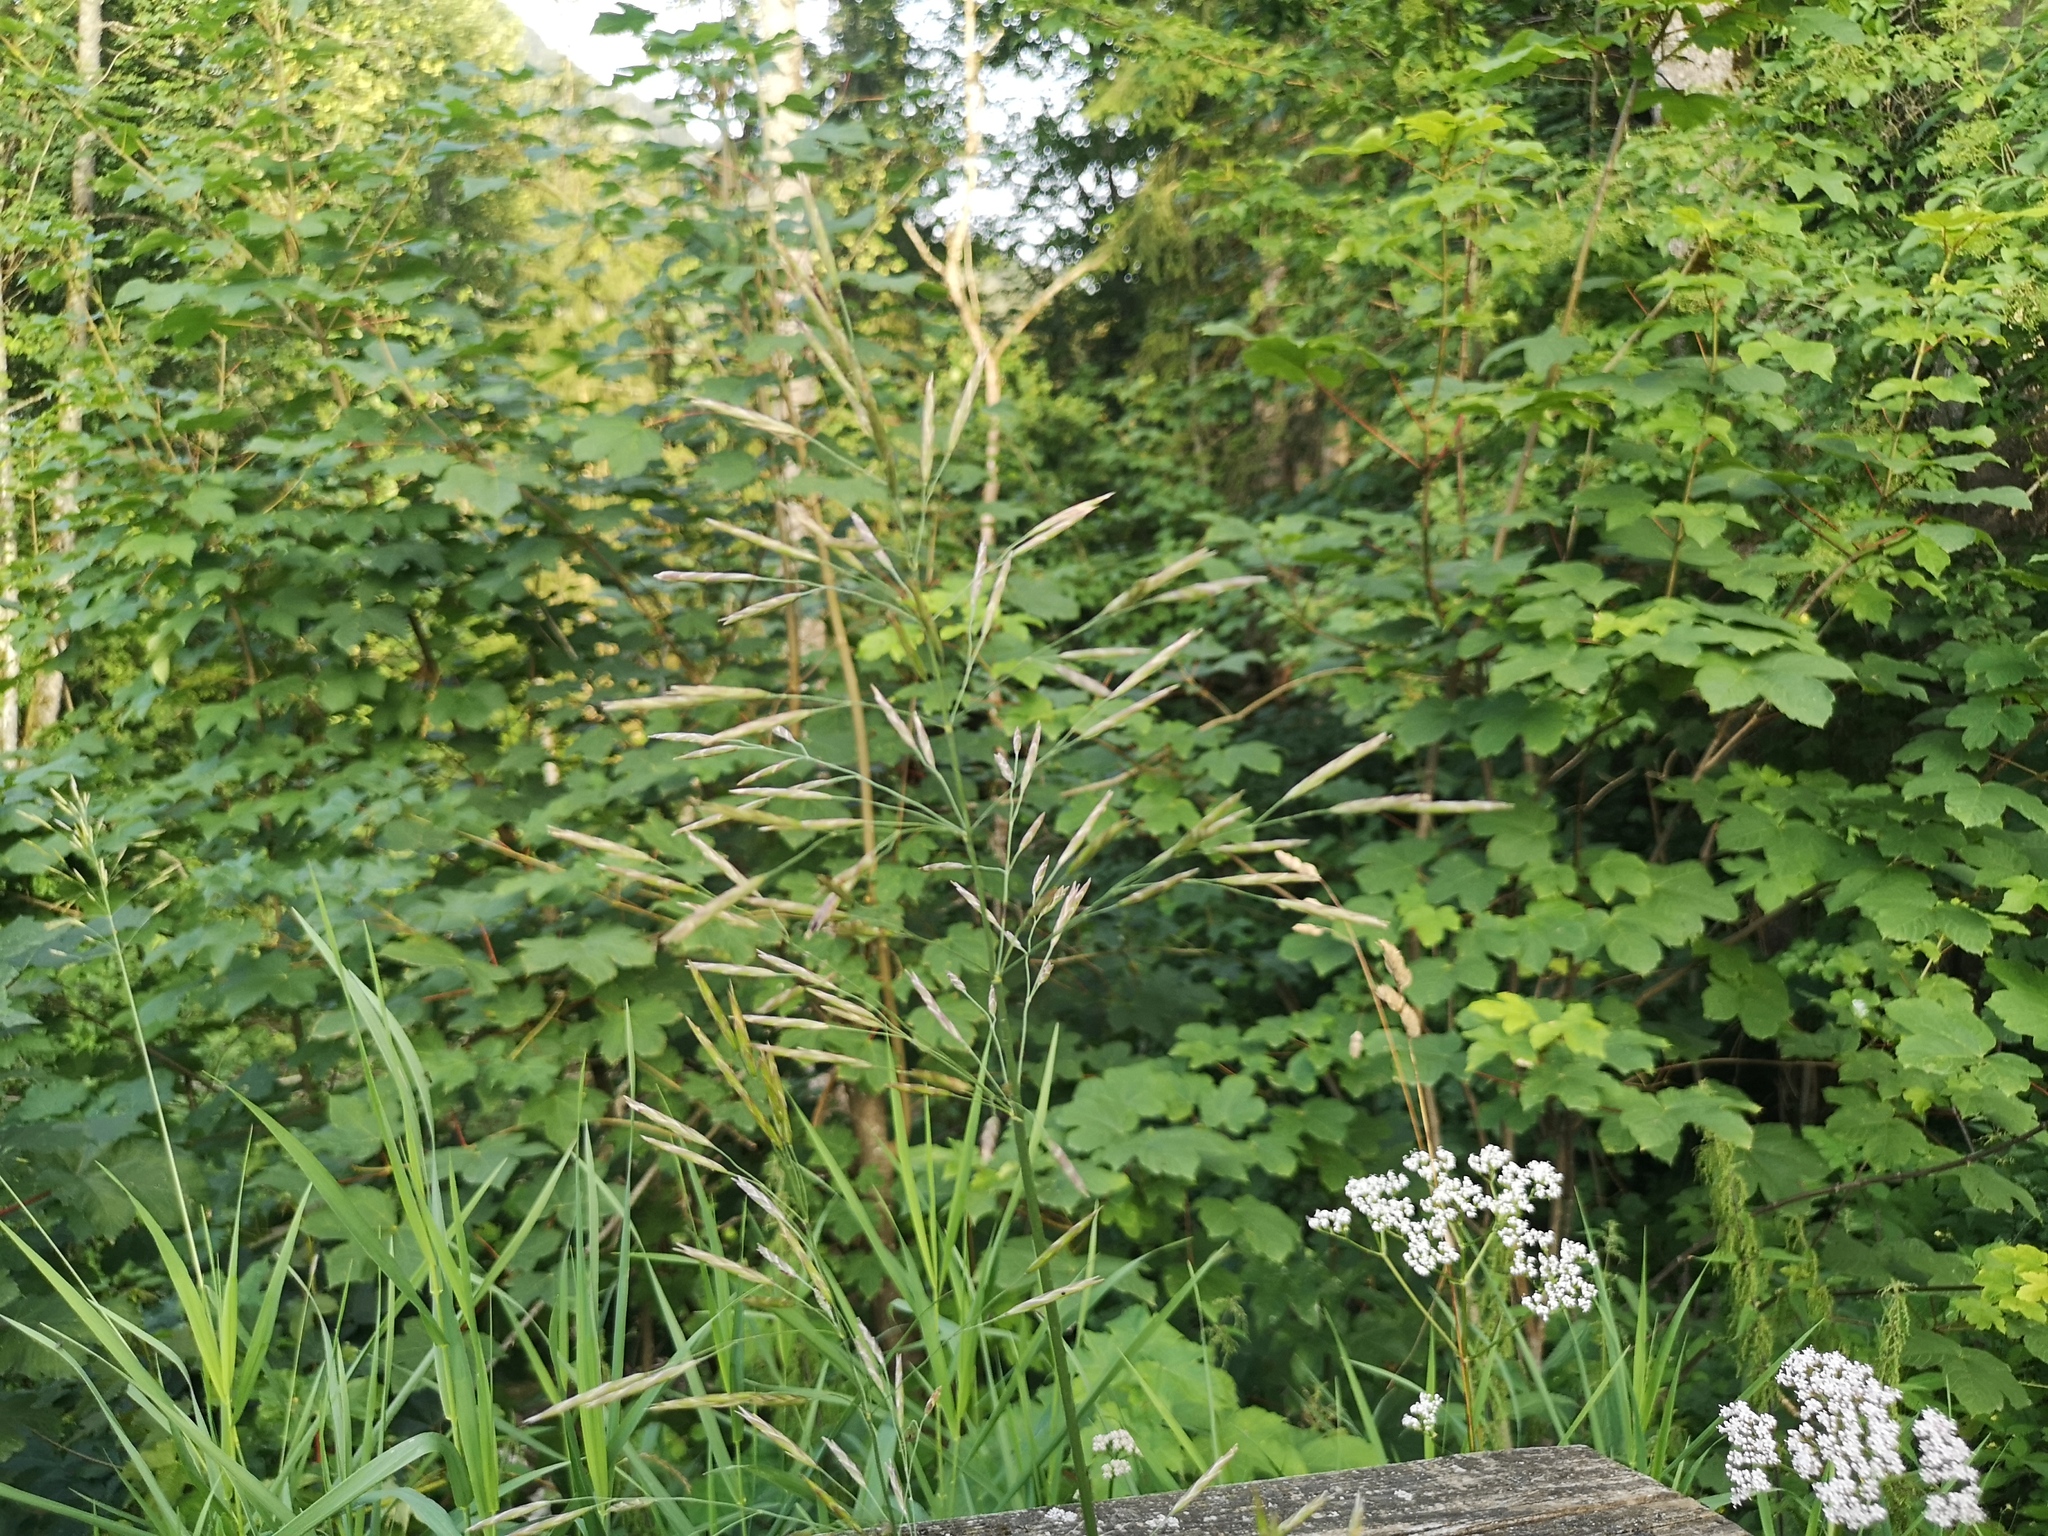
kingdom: Plantae
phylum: Tracheophyta
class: Liliopsida
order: Poales
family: Poaceae
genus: Bromus
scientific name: Bromus inermis
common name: Smooth brome
